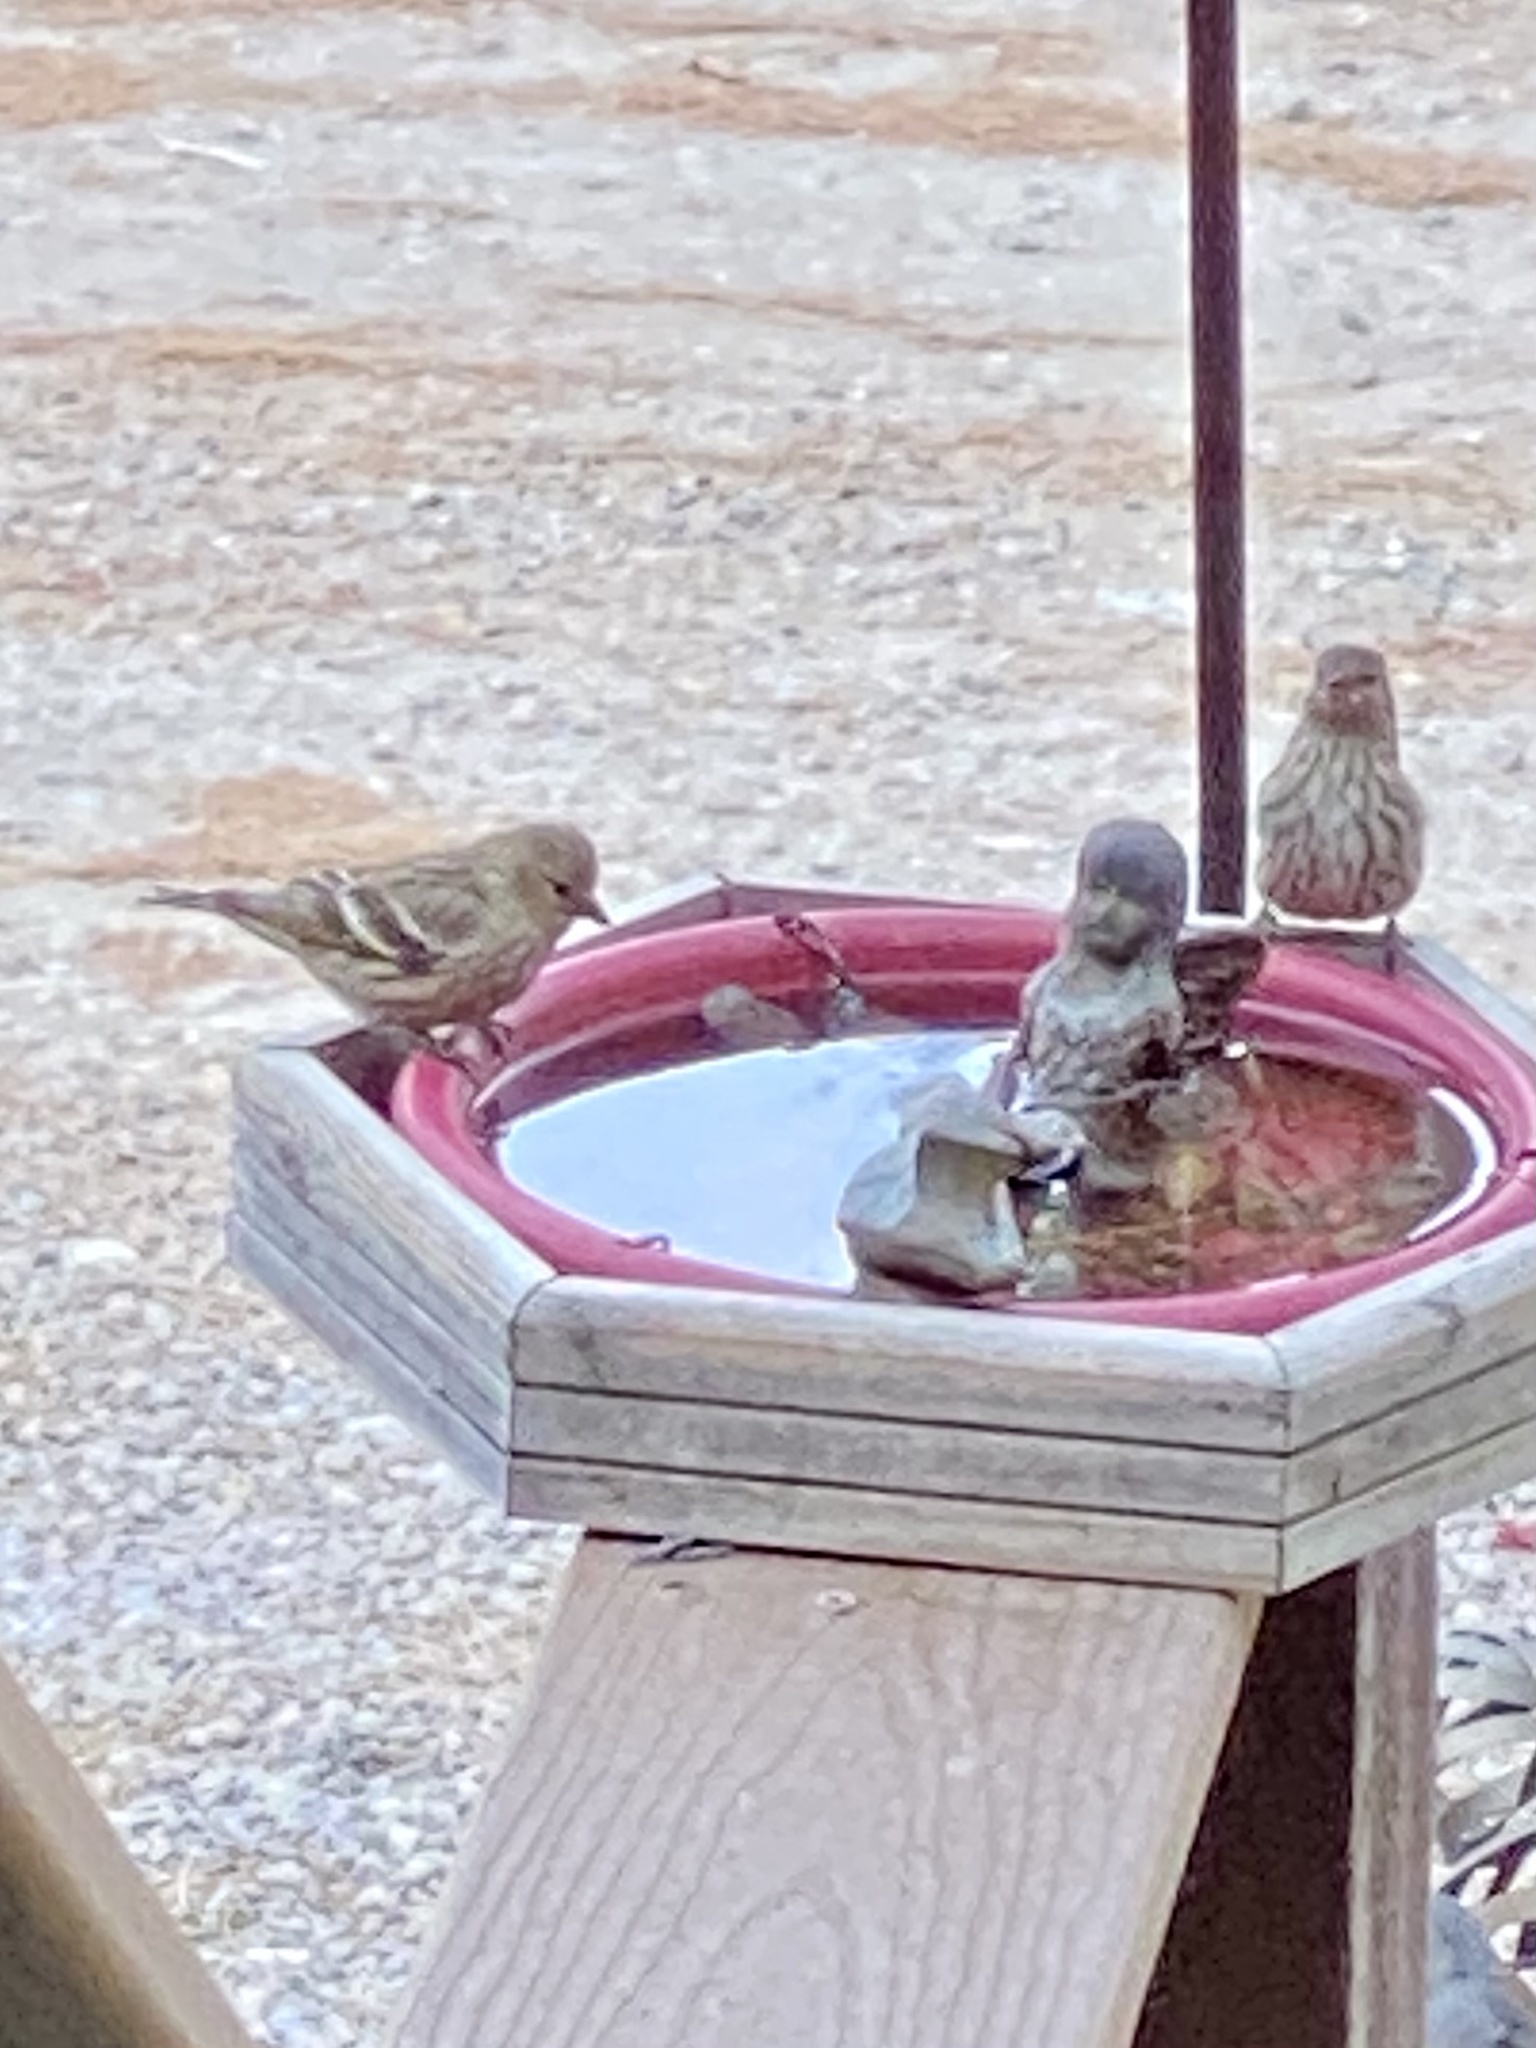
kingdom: Animalia
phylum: Chordata
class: Aves
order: Passeriformes
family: Fringillidae
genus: Spinus
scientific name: Spinus pinus
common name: Pine siskin
